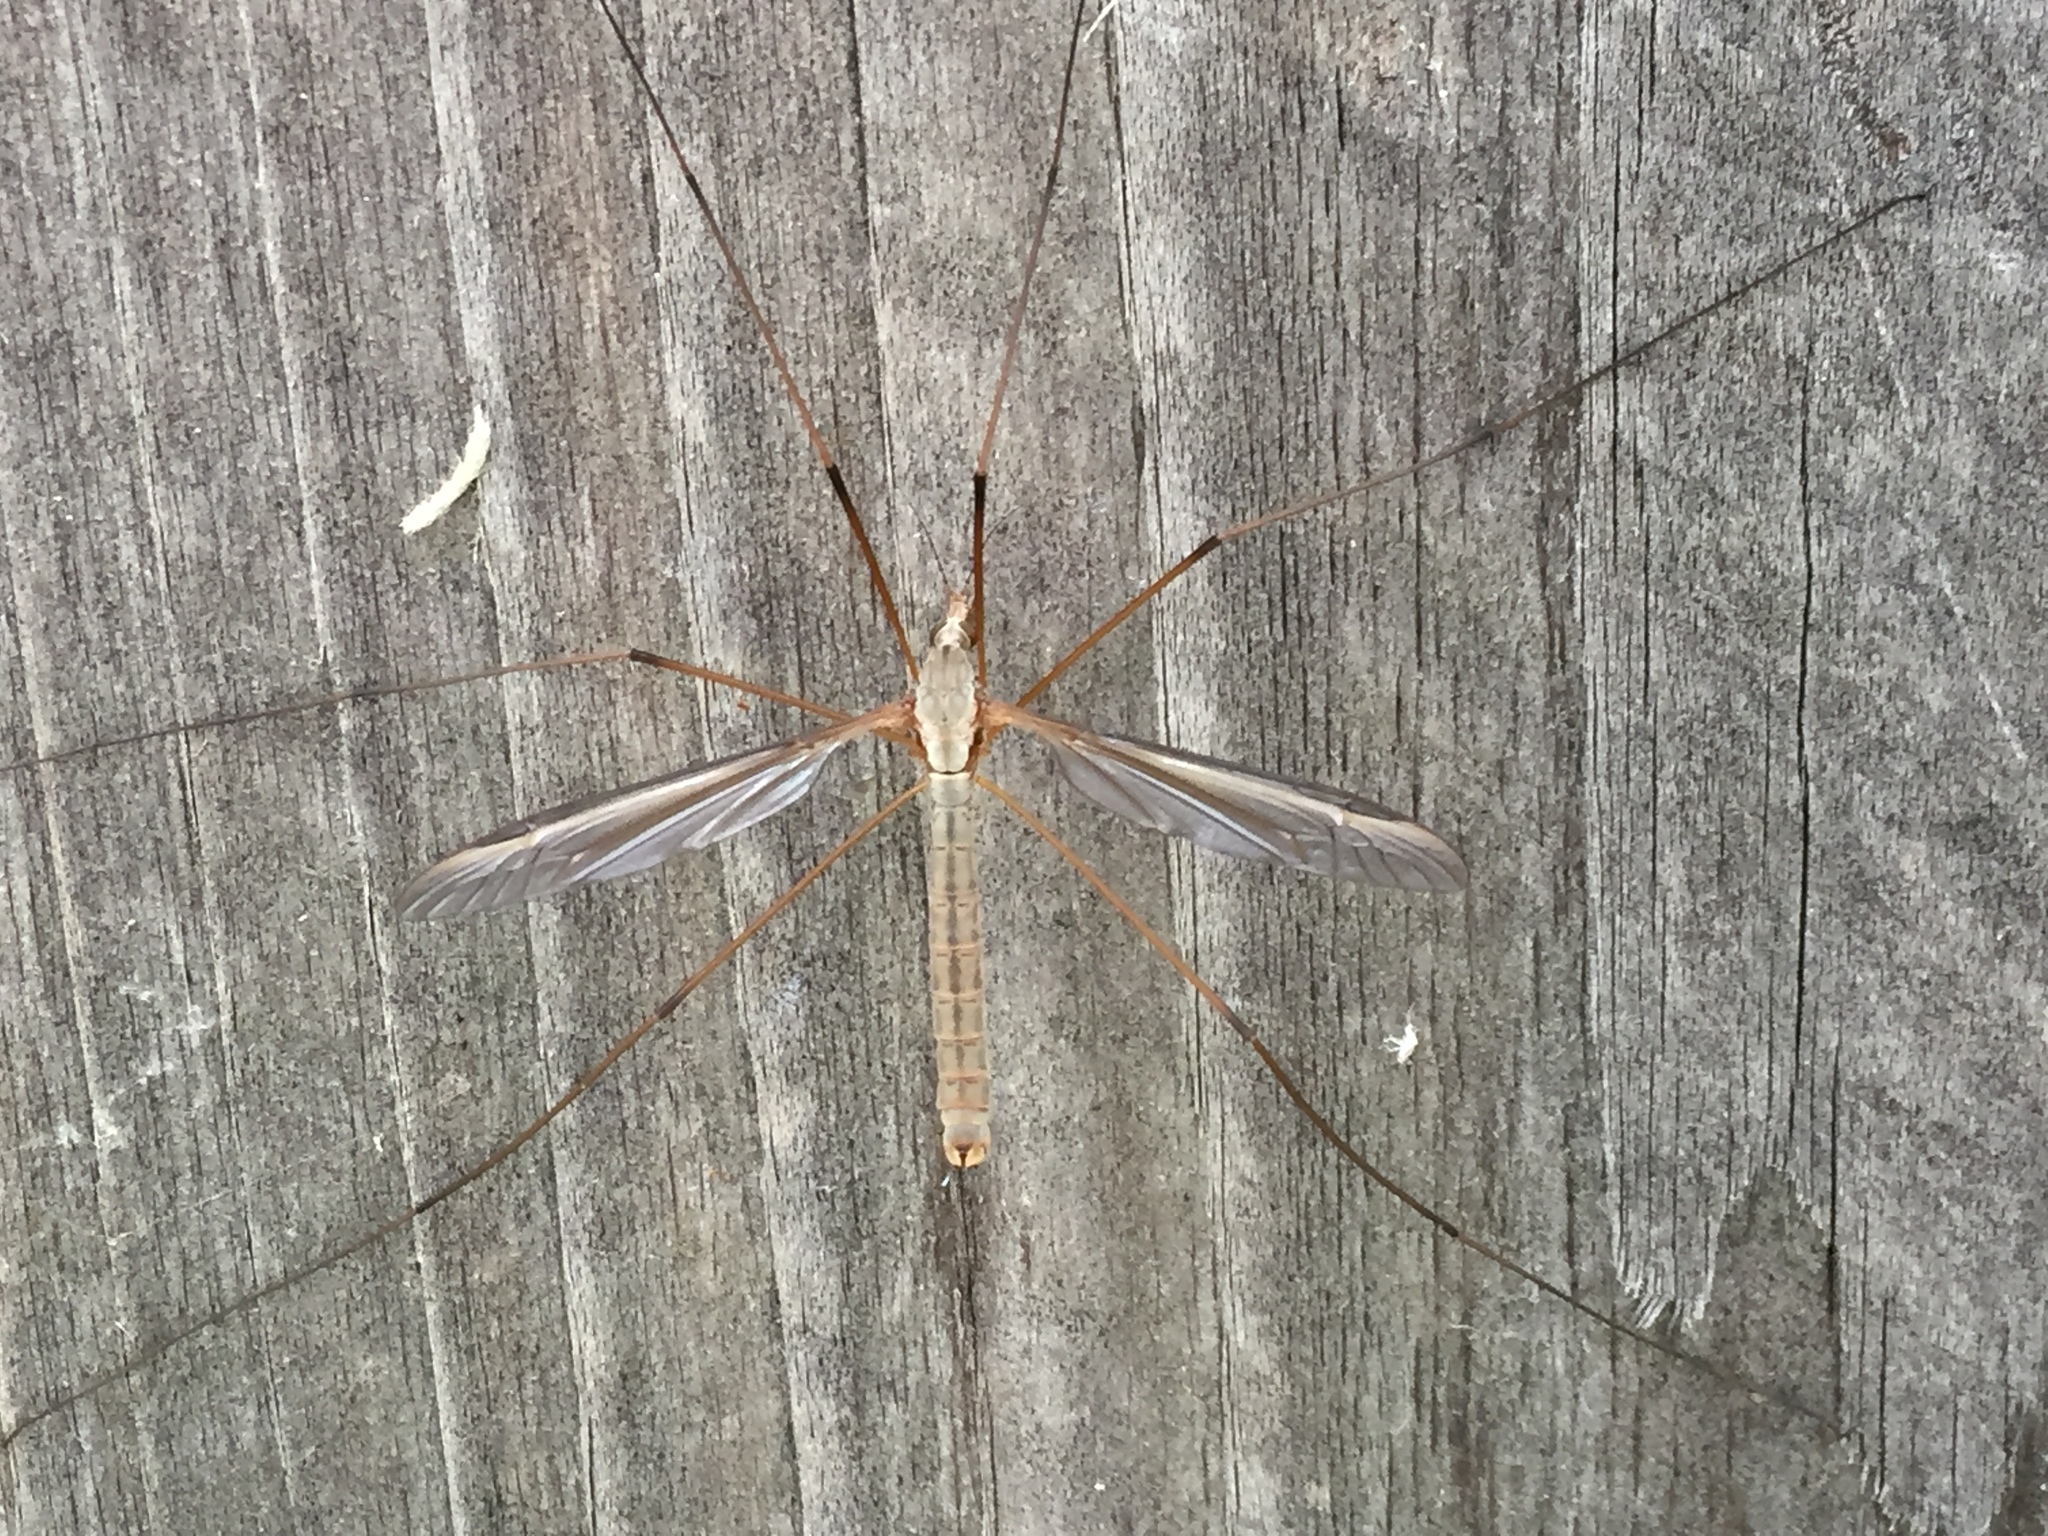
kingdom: Animalia
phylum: Arthropoda
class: Insecta
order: Diptera
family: Tipulidae
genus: Tipula
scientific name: Tipula oleracea
